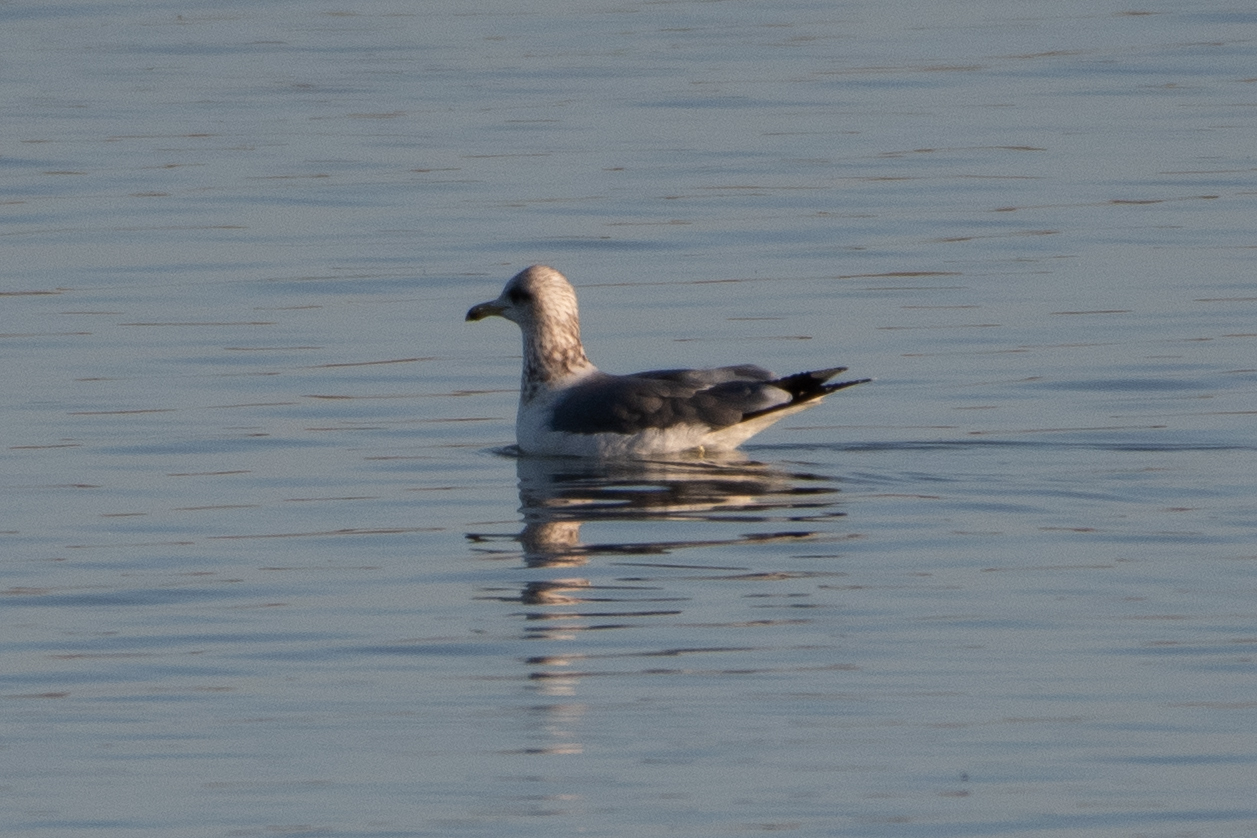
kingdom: Animalia
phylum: Chordata
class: Aves
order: Charadriiformes
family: Laridae
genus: Larus
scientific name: Larus californicus
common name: California gull
